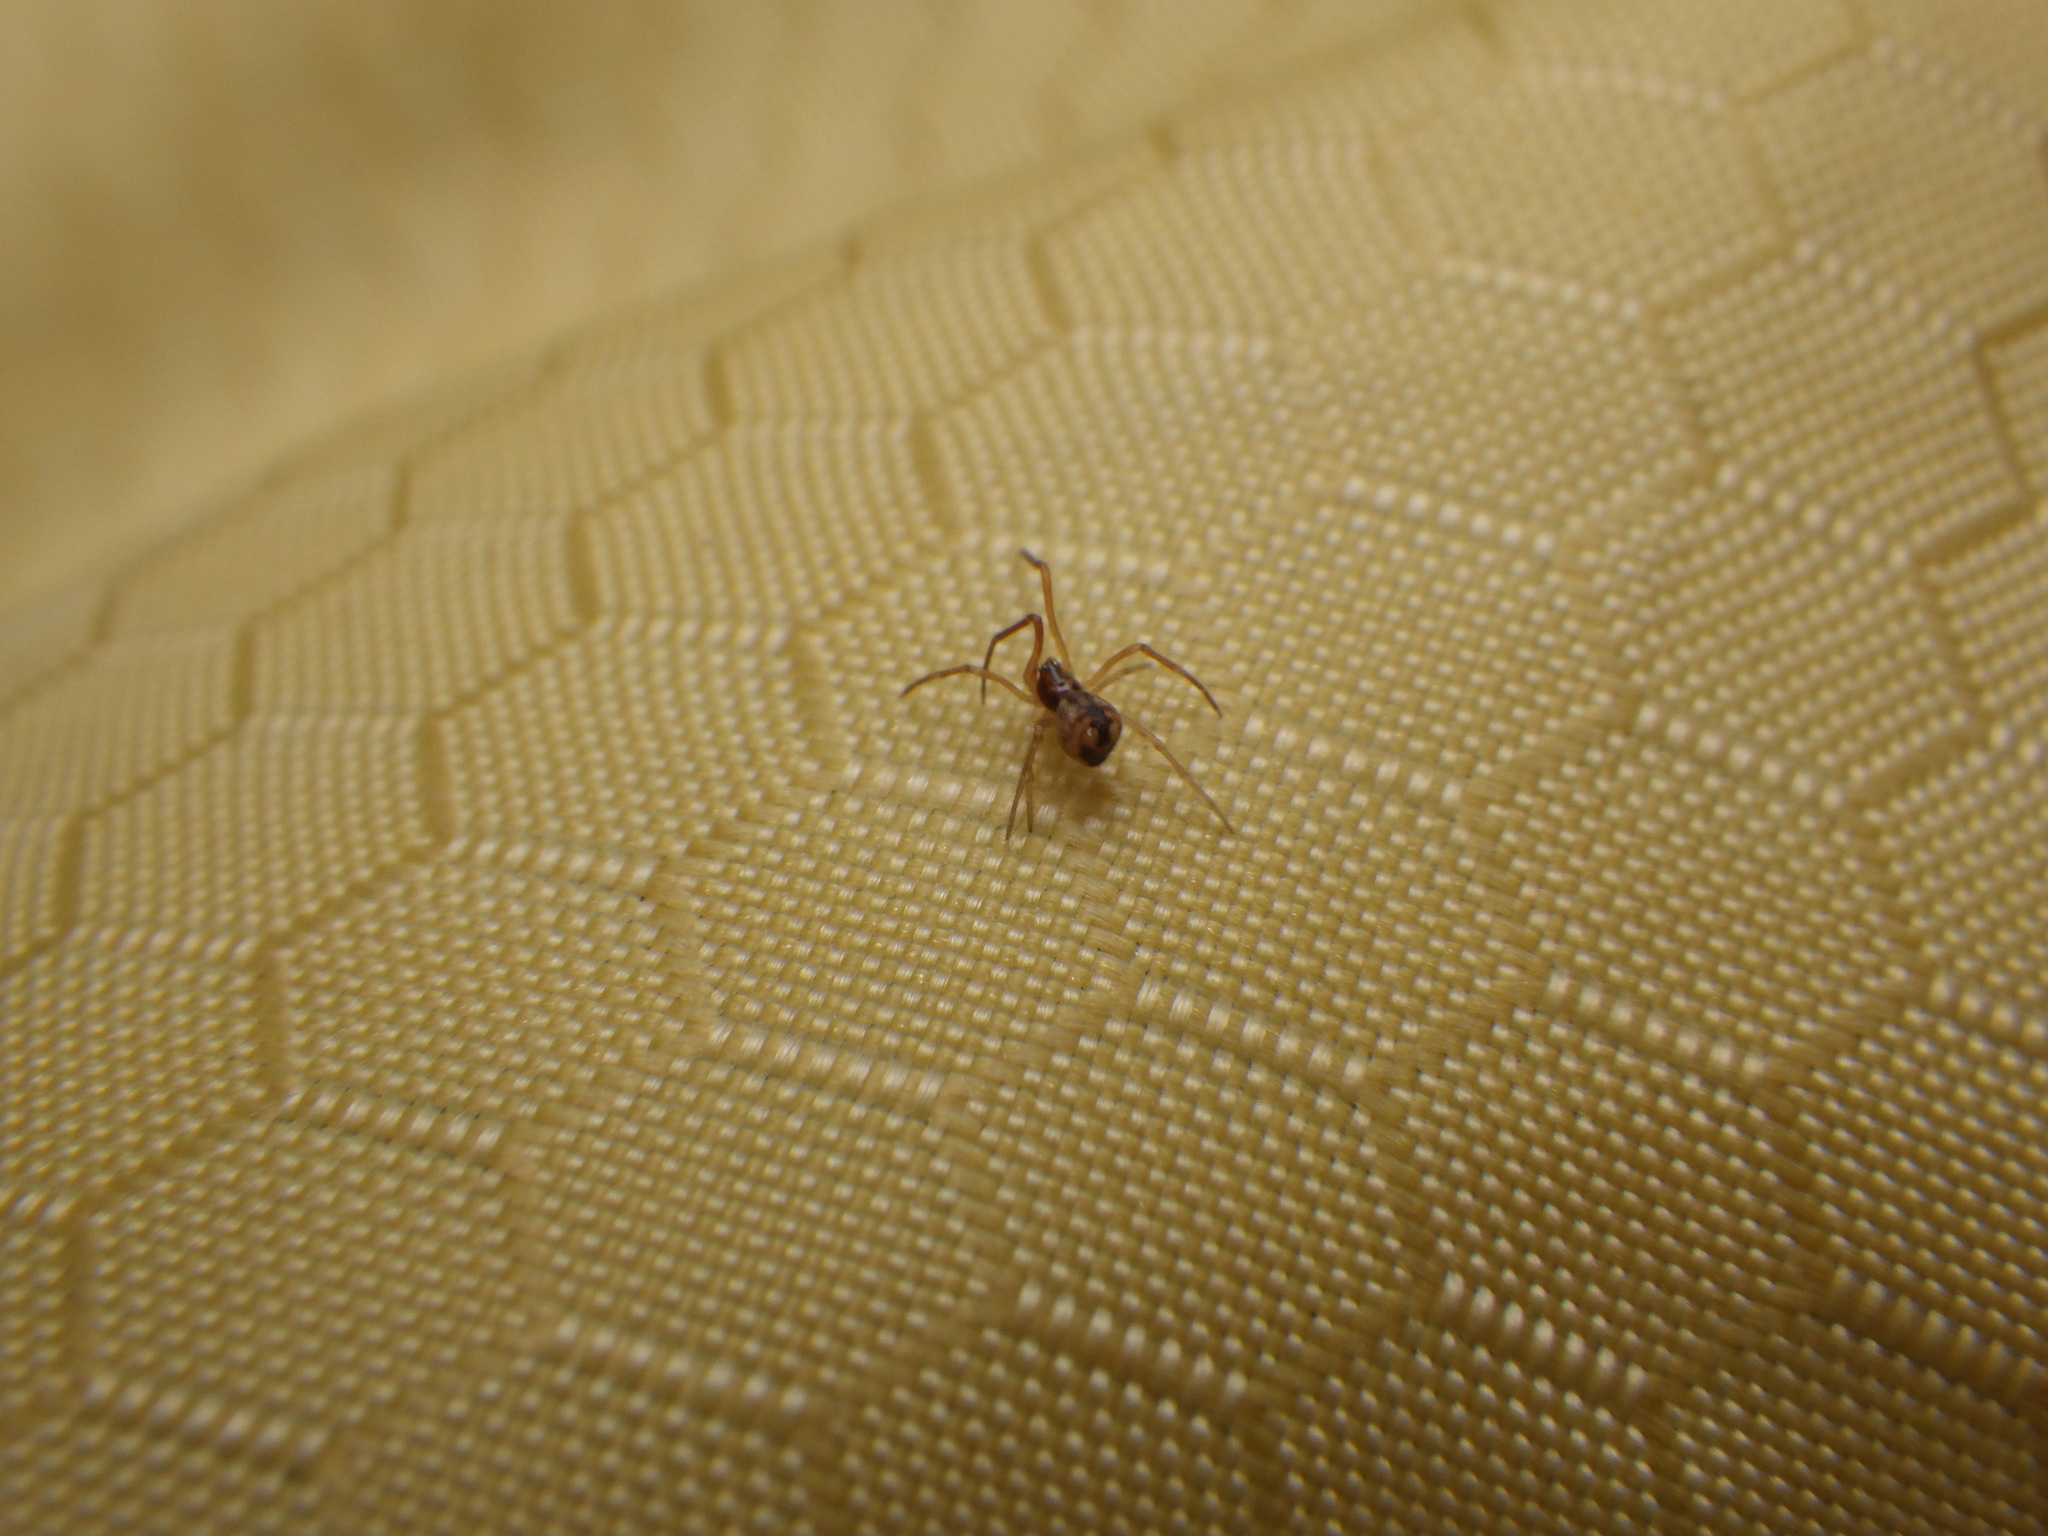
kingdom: Animalia
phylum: Arthropoda
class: Arachnida
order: Araneae
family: Theridiidae
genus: Neospintharus
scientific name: Neospintharus trigonum
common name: Horned parasitic cobweaver
